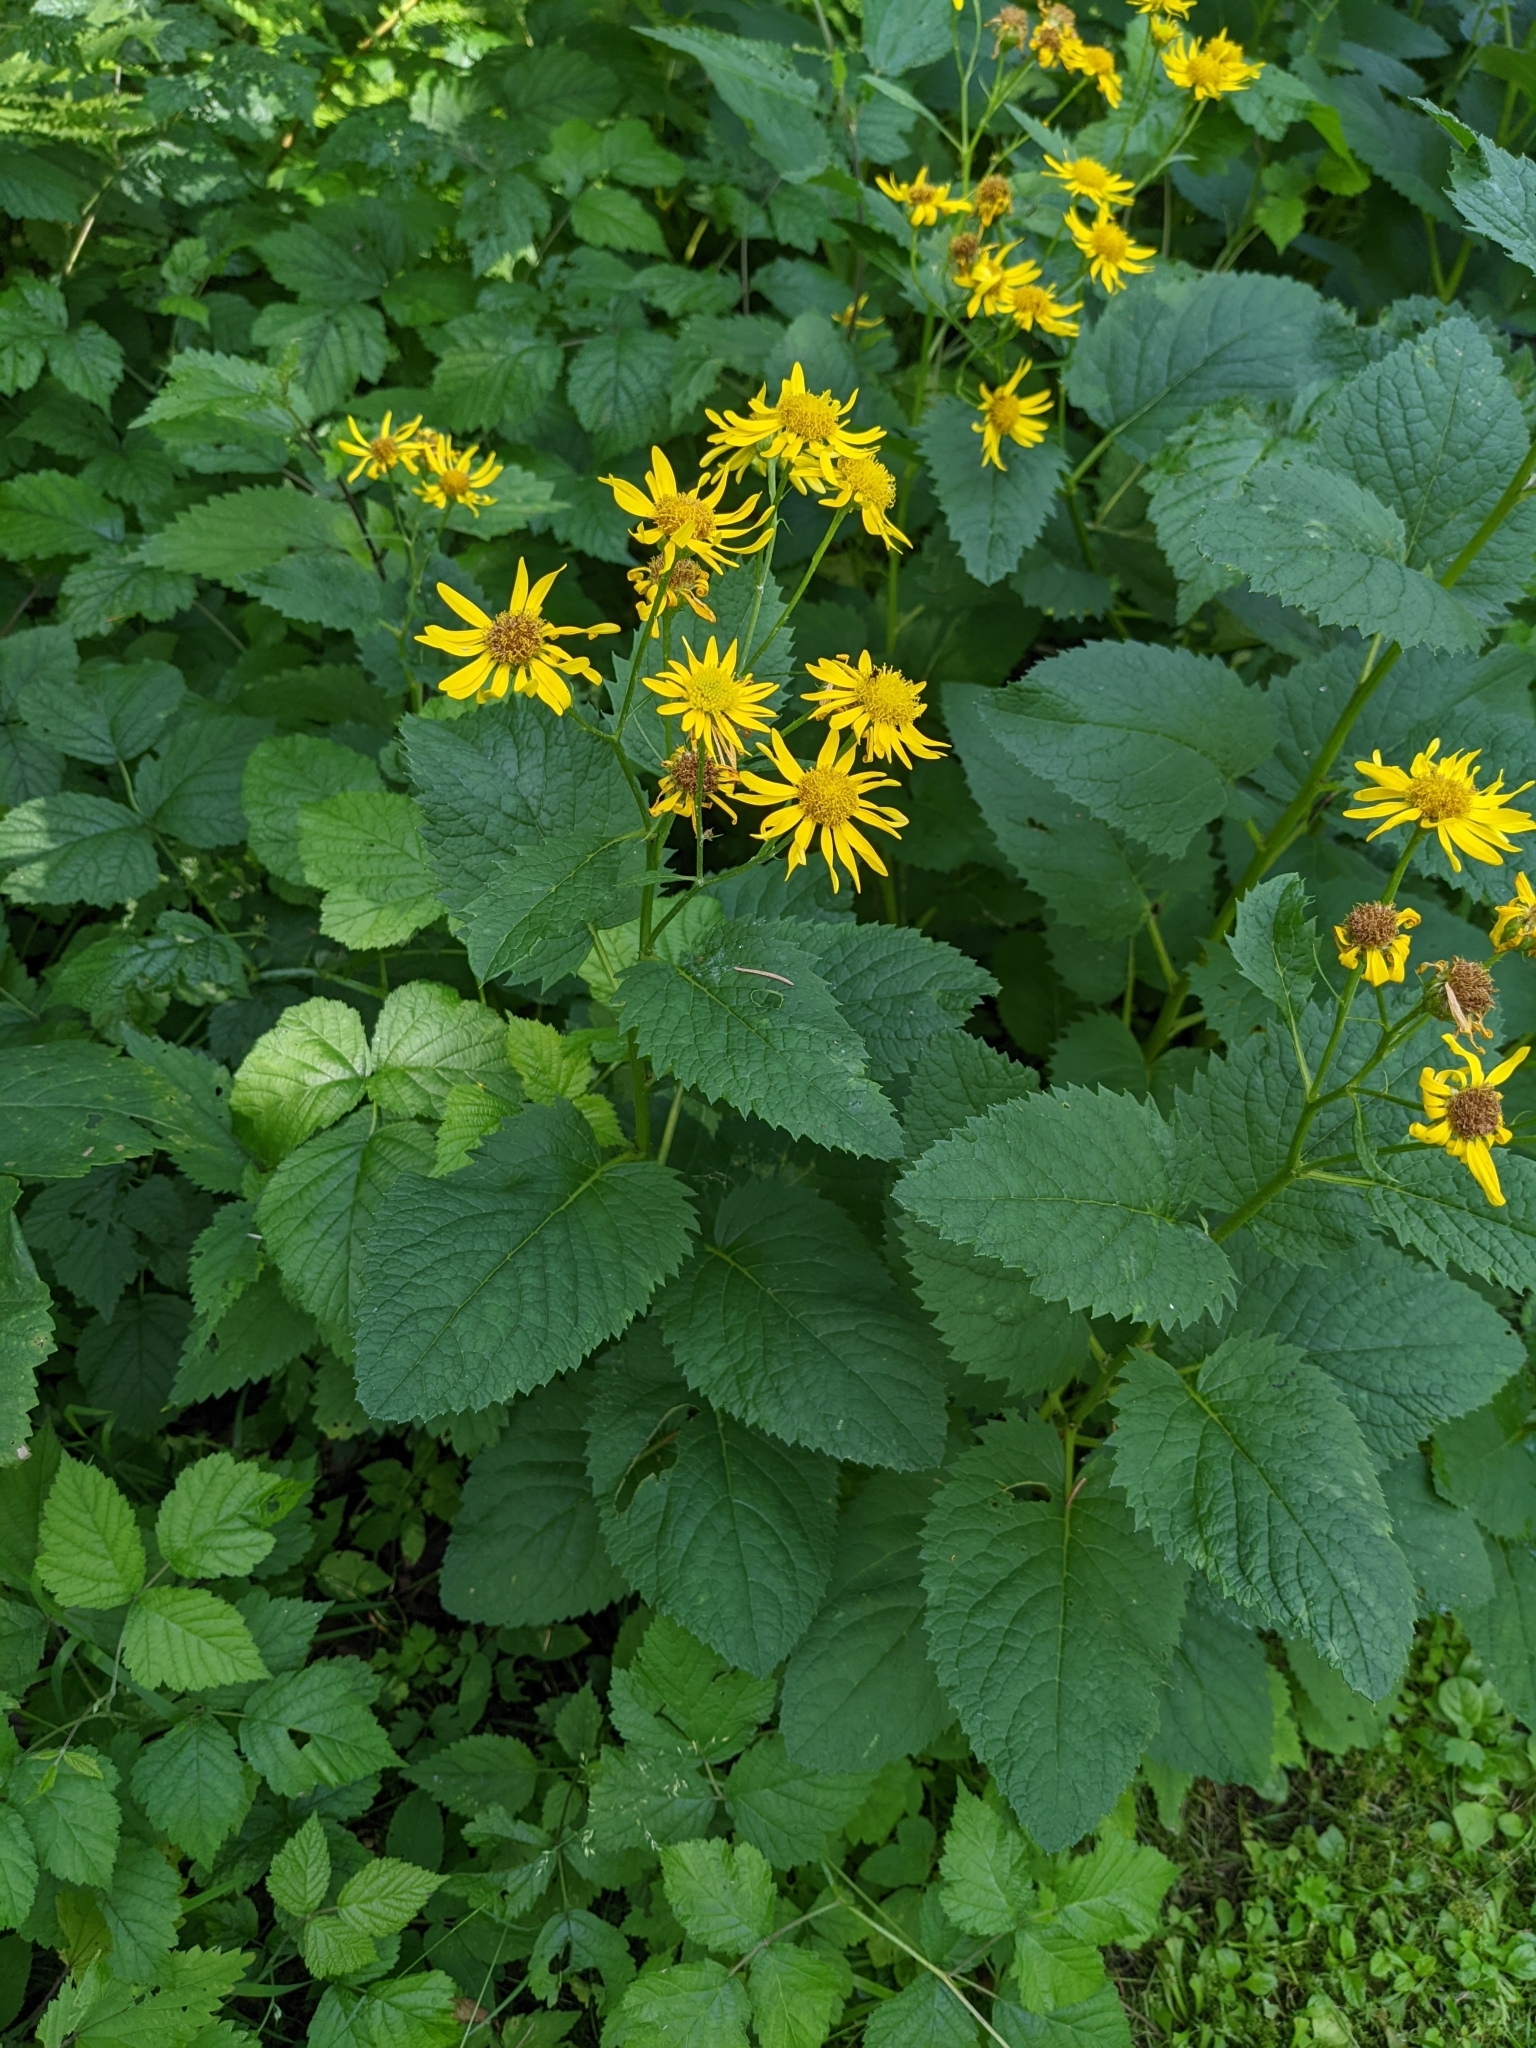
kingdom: Plantae
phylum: Tracheophyta
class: Magnoliopsida
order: Asterales
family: Asteraceae
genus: Jacobaea
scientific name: Jacobaea alpina
